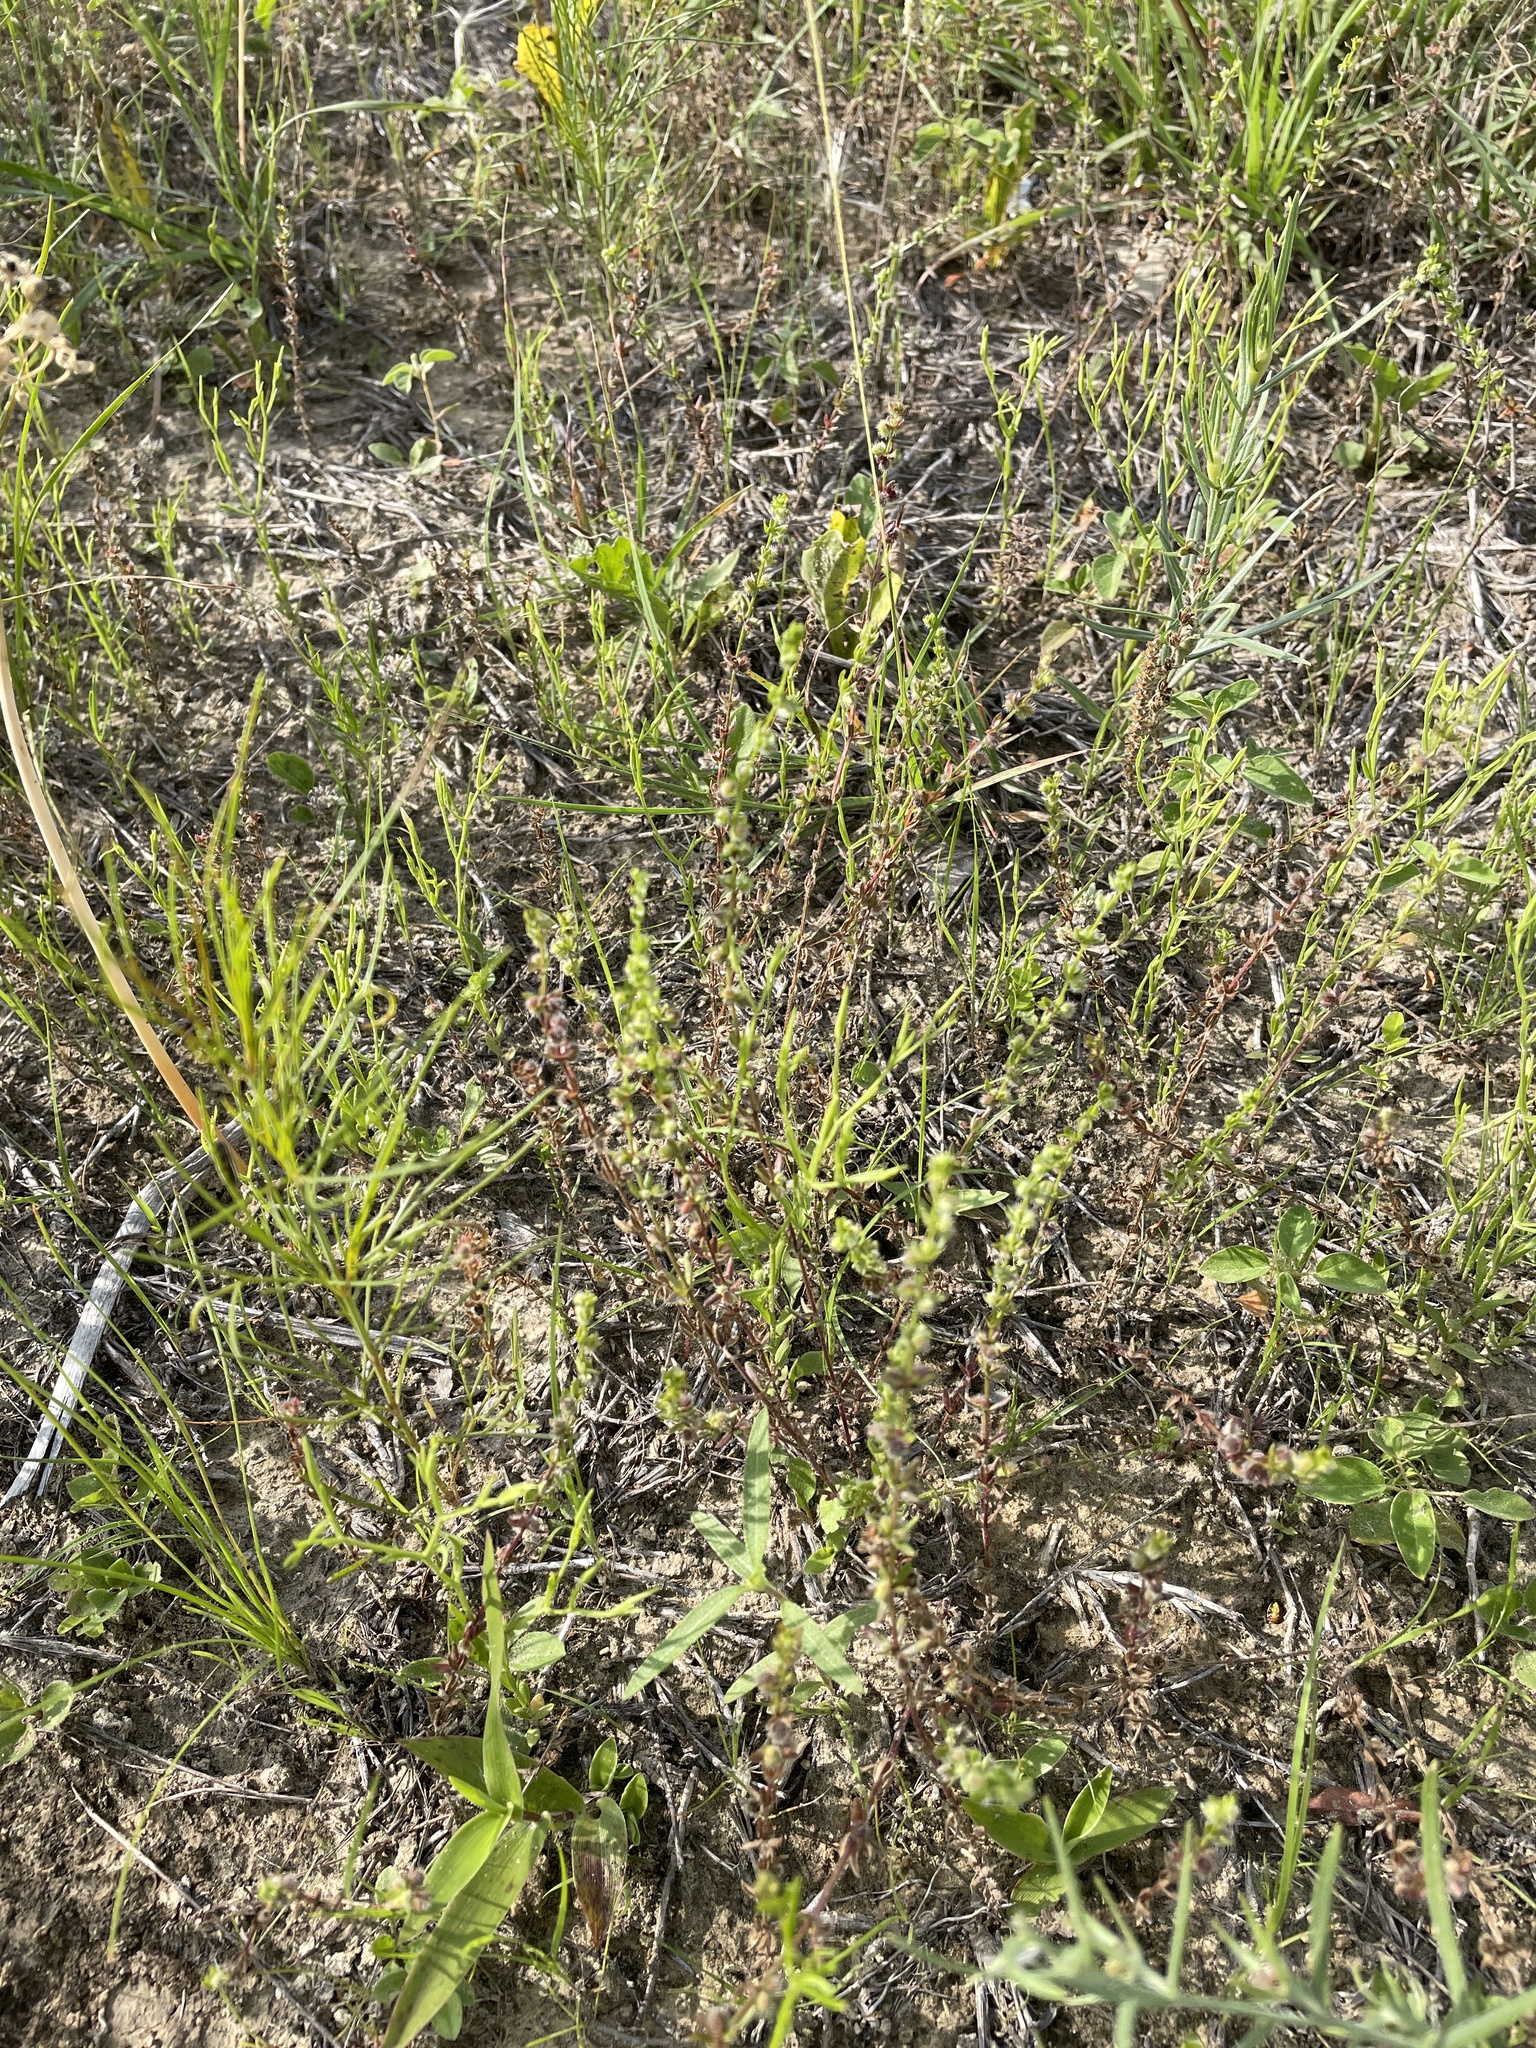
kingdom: Plantae
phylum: Tracheophyta
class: Magnoliopsida
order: Gentianales
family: Rubiaceae
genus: Galium
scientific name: Galium virgatum
